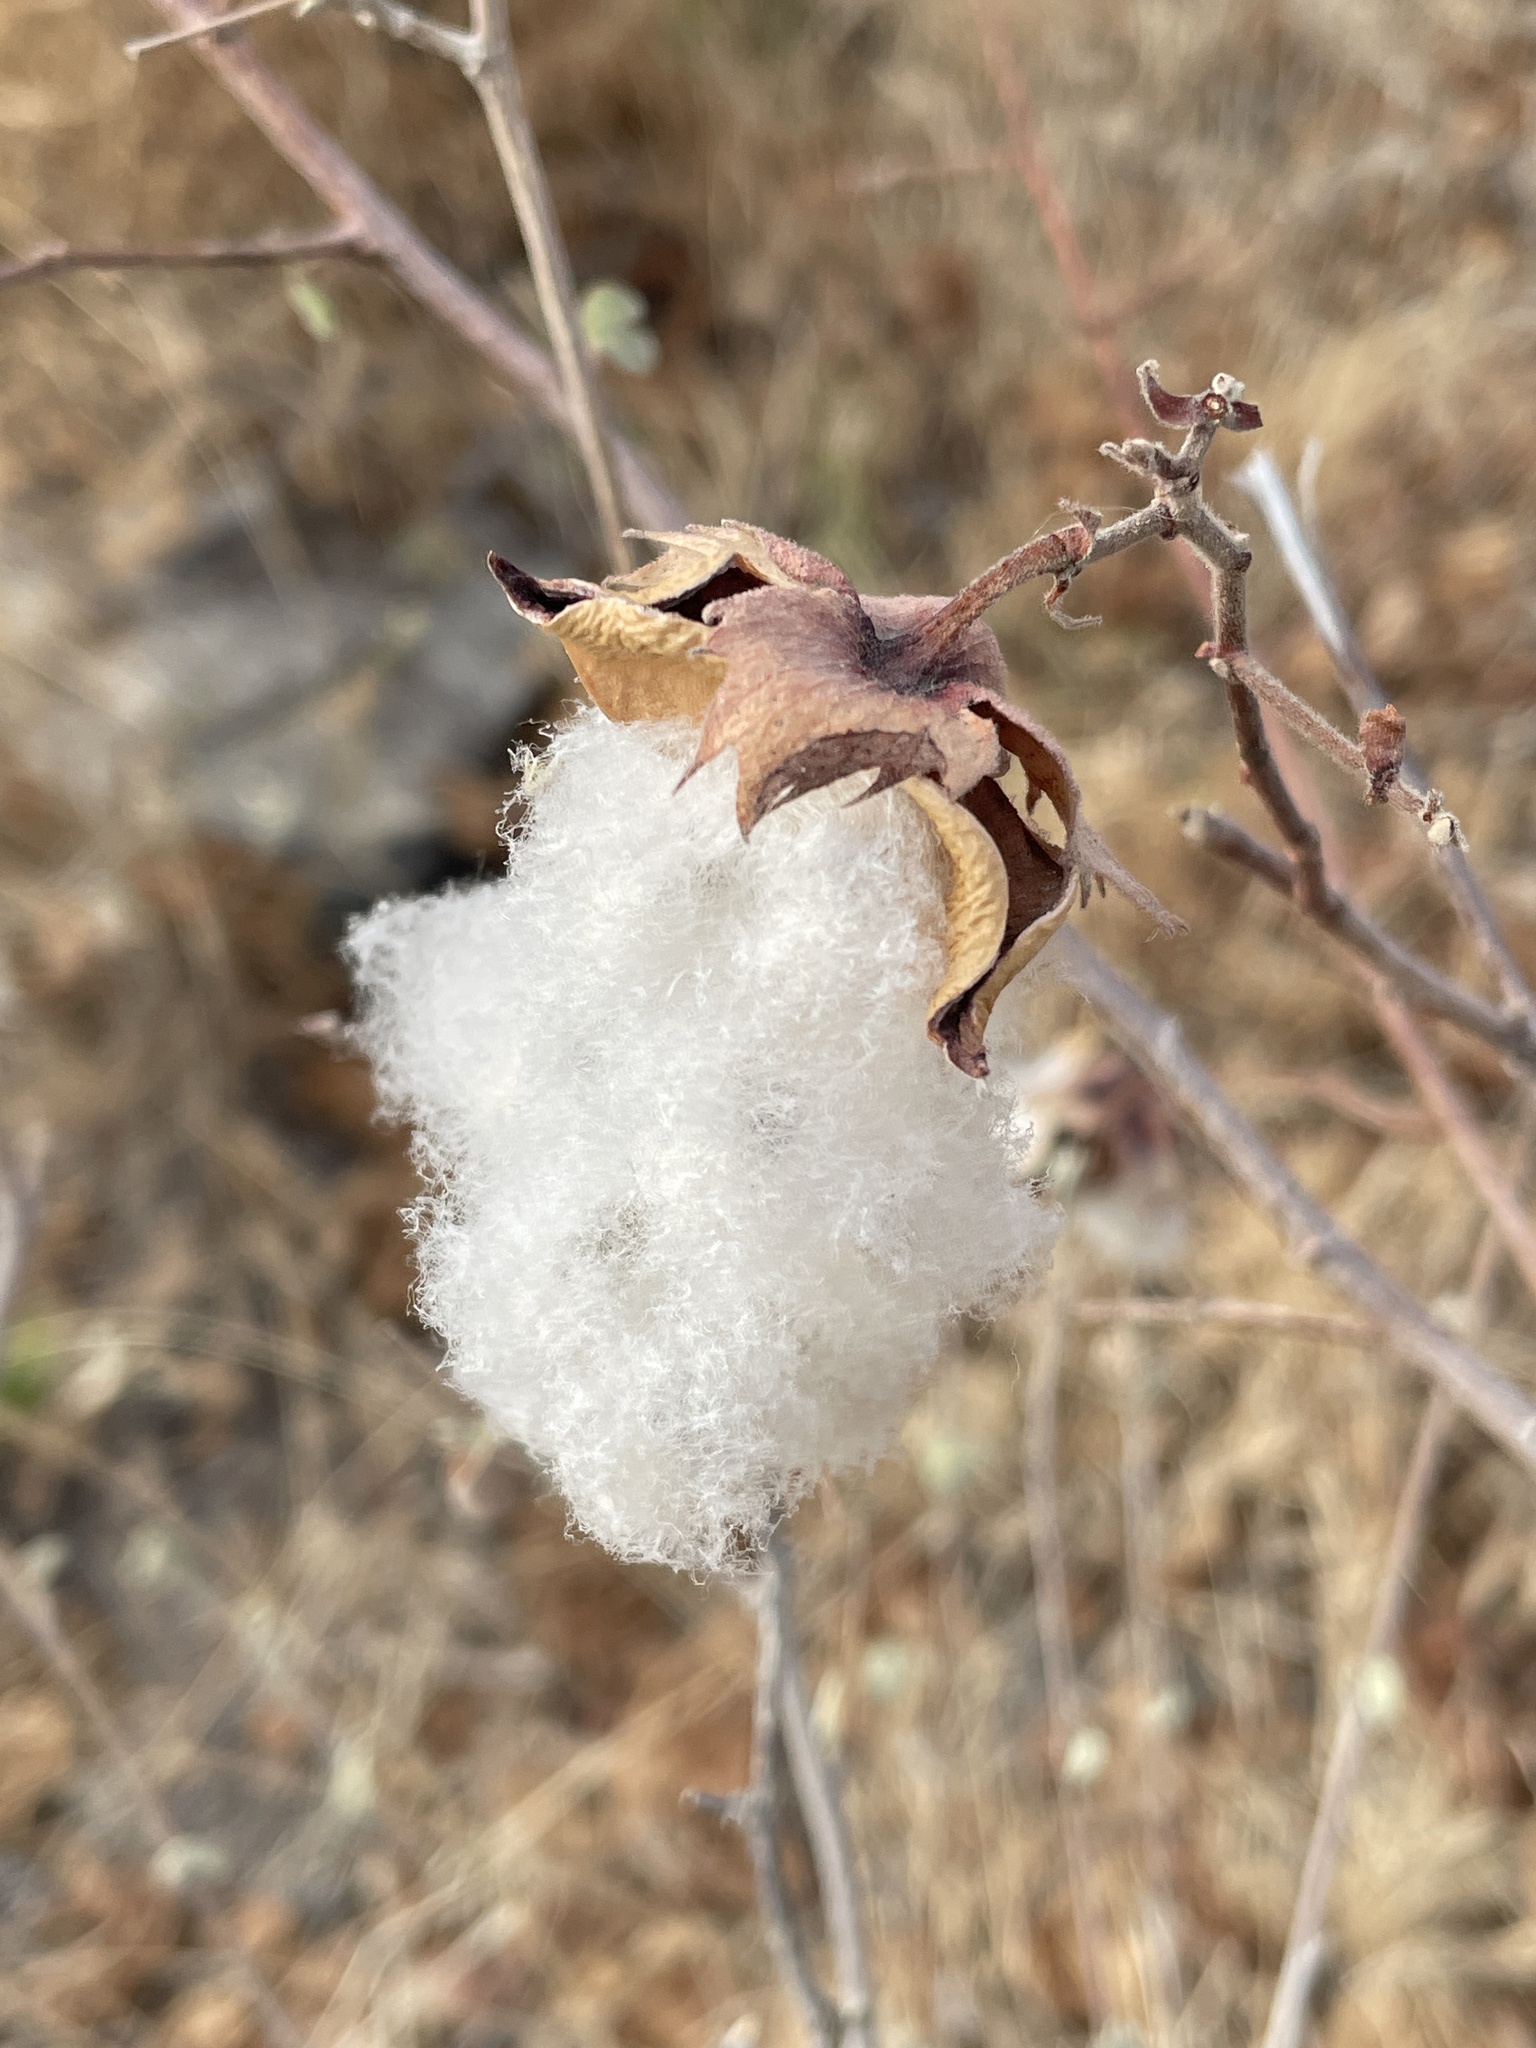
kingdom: Plantae
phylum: Tracheophyta
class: Magnoliopsida
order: Malvales
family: Malvaceae
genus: Gossypium
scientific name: Gossypium herbaceum
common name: Levant cotton
